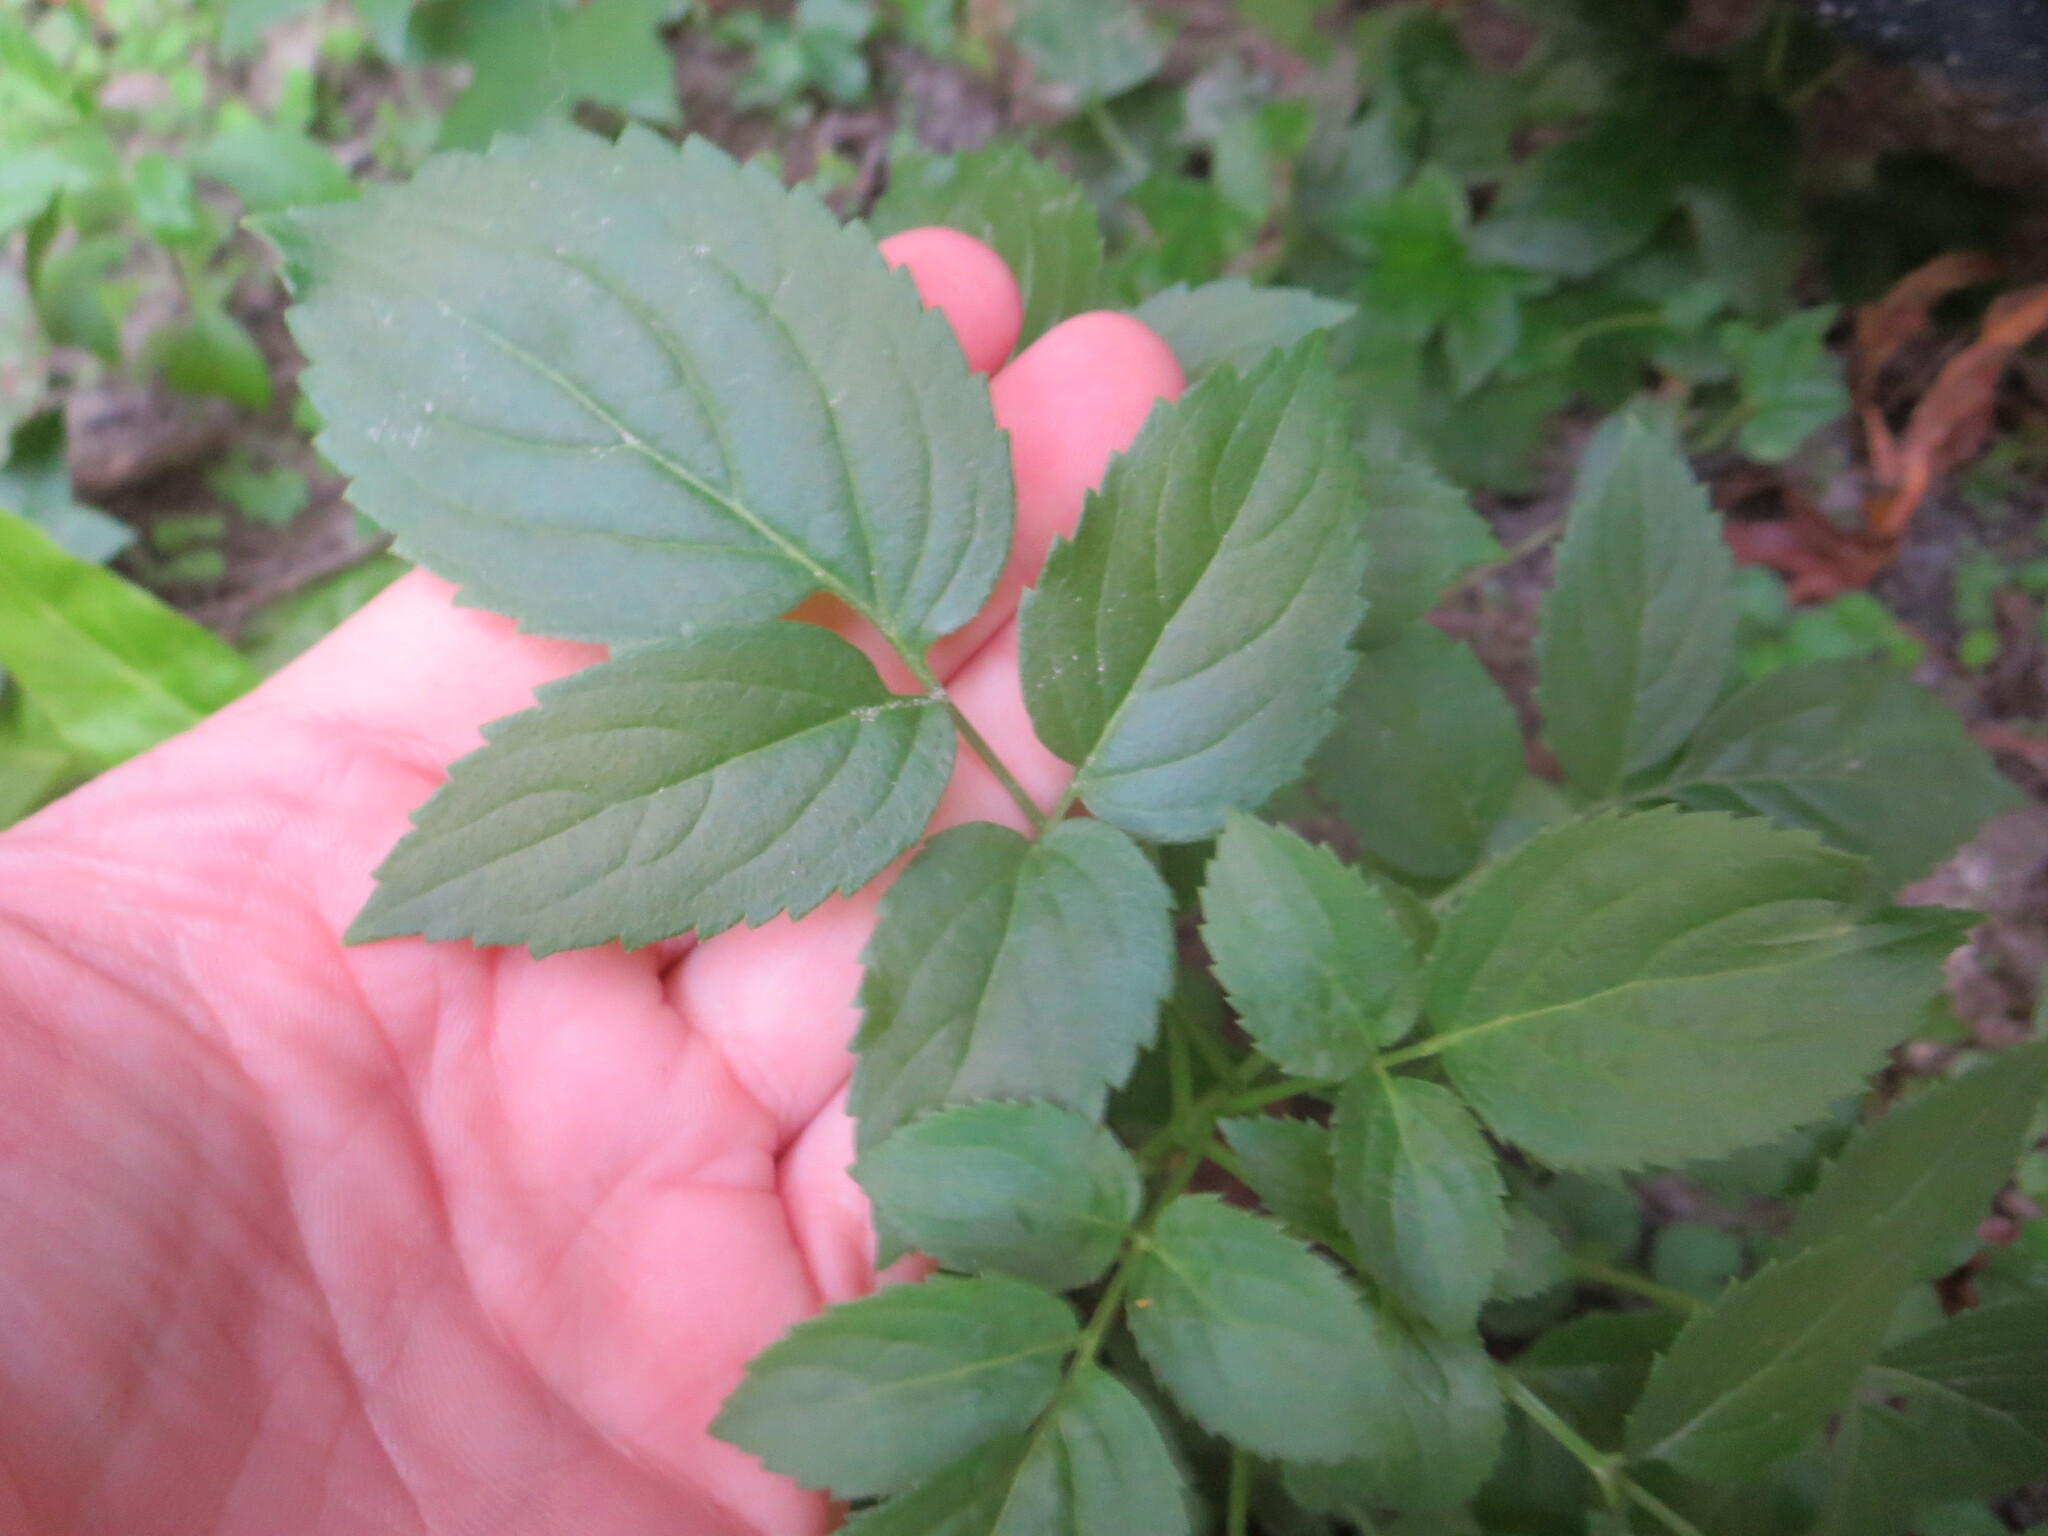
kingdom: Plantae
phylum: Tracheophyta
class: Magnoliopsida
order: Dipsacales
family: Viburnaceae
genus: Sambucus
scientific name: Sambucus canadensis
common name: American elder
